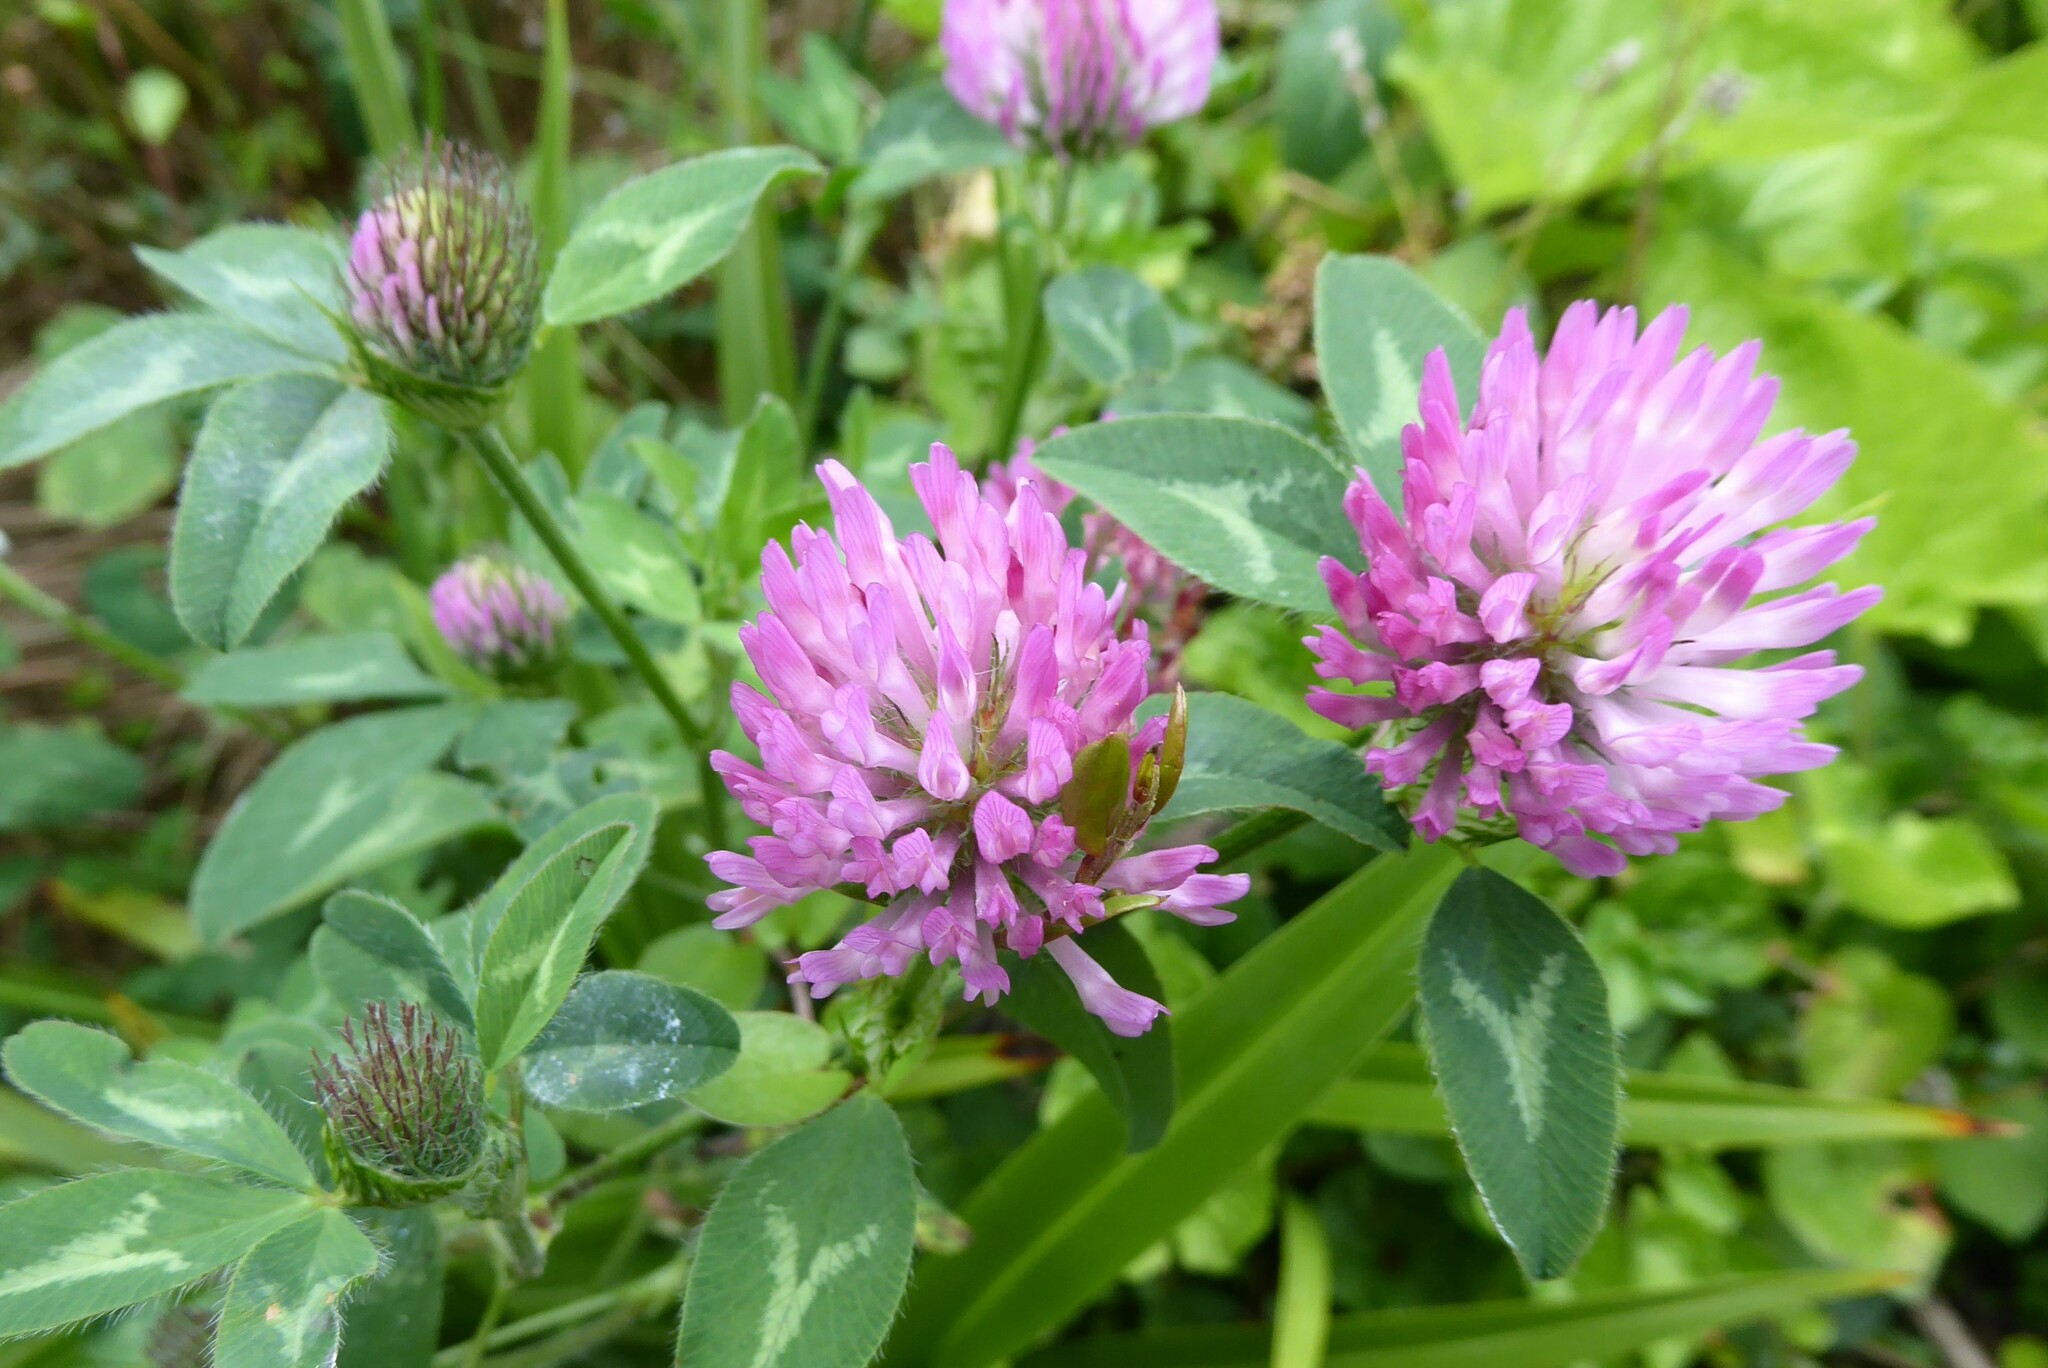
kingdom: Plantae
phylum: Tracheophyta
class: Magnoliopsida
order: Fabales
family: Fabaceae
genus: Trifolium
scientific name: Trifolium pratense
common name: Red clover
